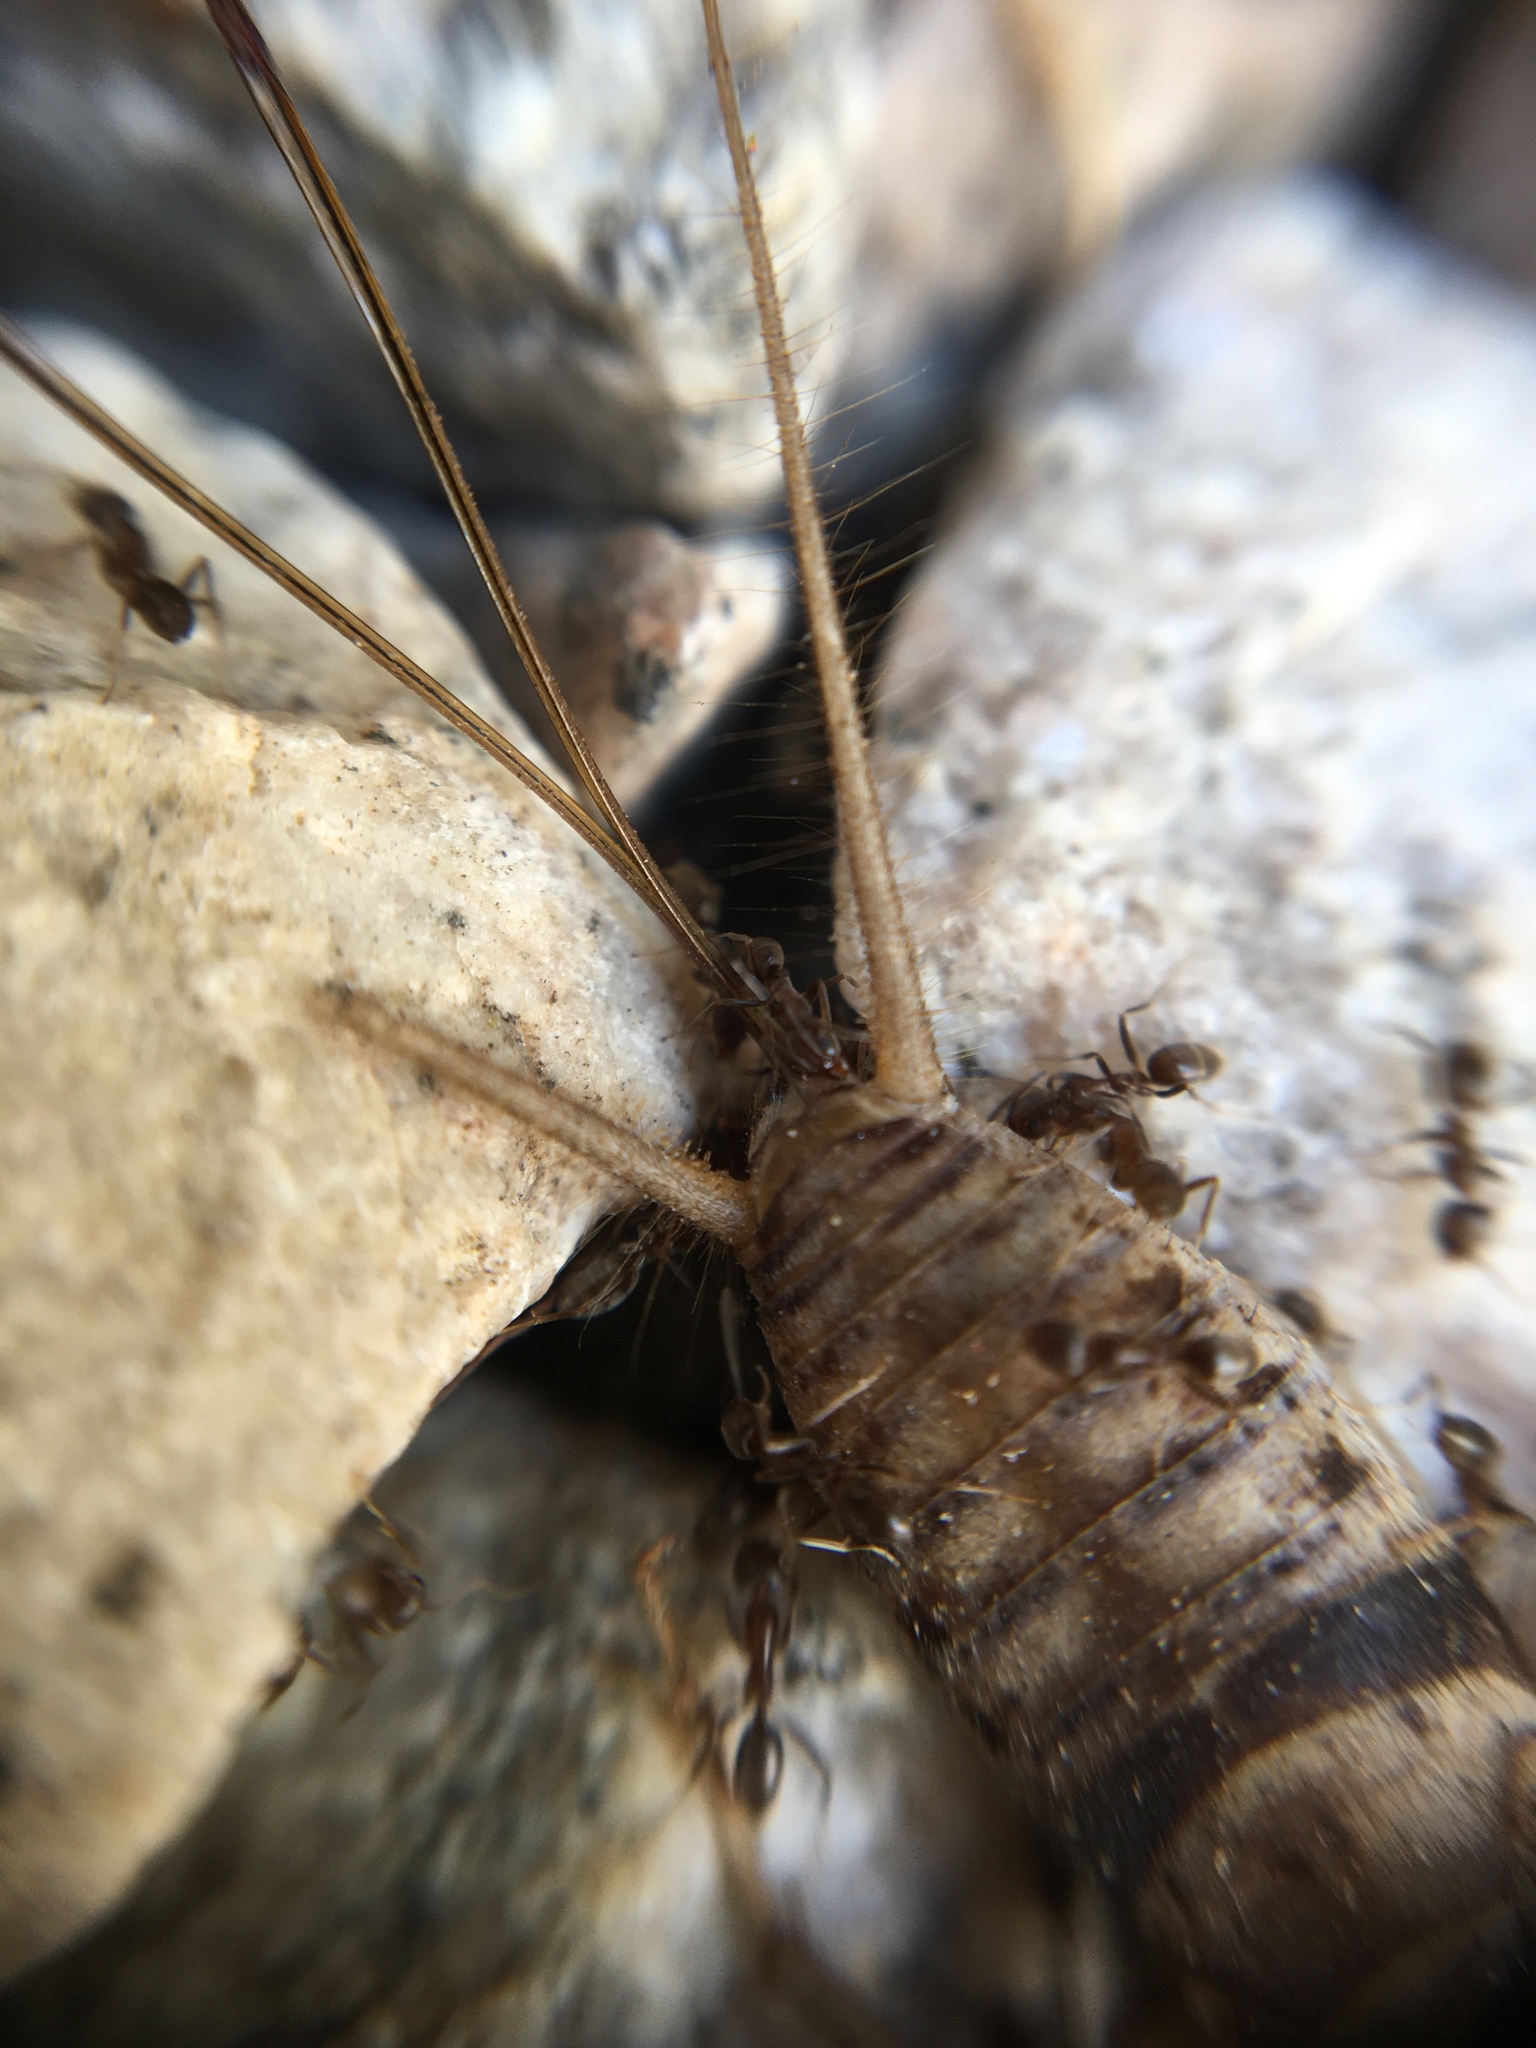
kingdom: Animalia
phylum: Arthropoda
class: Insecta
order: Orthoptera
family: Gryllidae
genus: Gryllodes
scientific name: Gryllodes sigillatus
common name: Tropical house cricket
